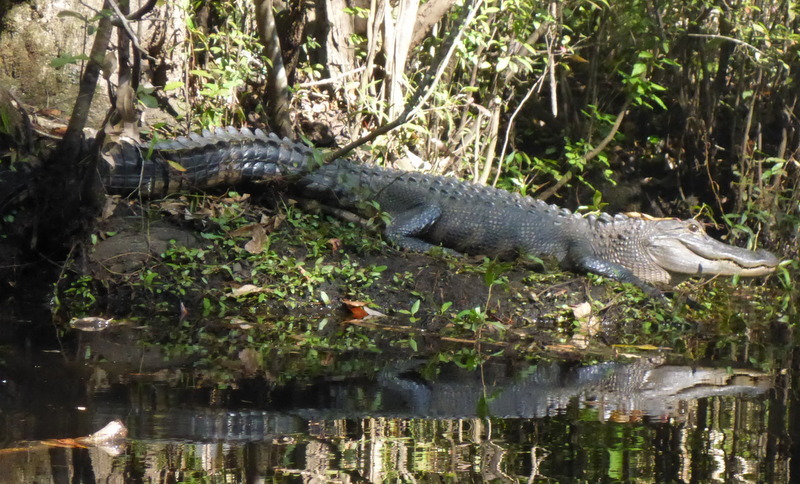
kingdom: Animalia
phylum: Chordata
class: Crocodylia
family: Alligatoridae
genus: Alligator
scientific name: Alligator mississippiensis
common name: American alligator
